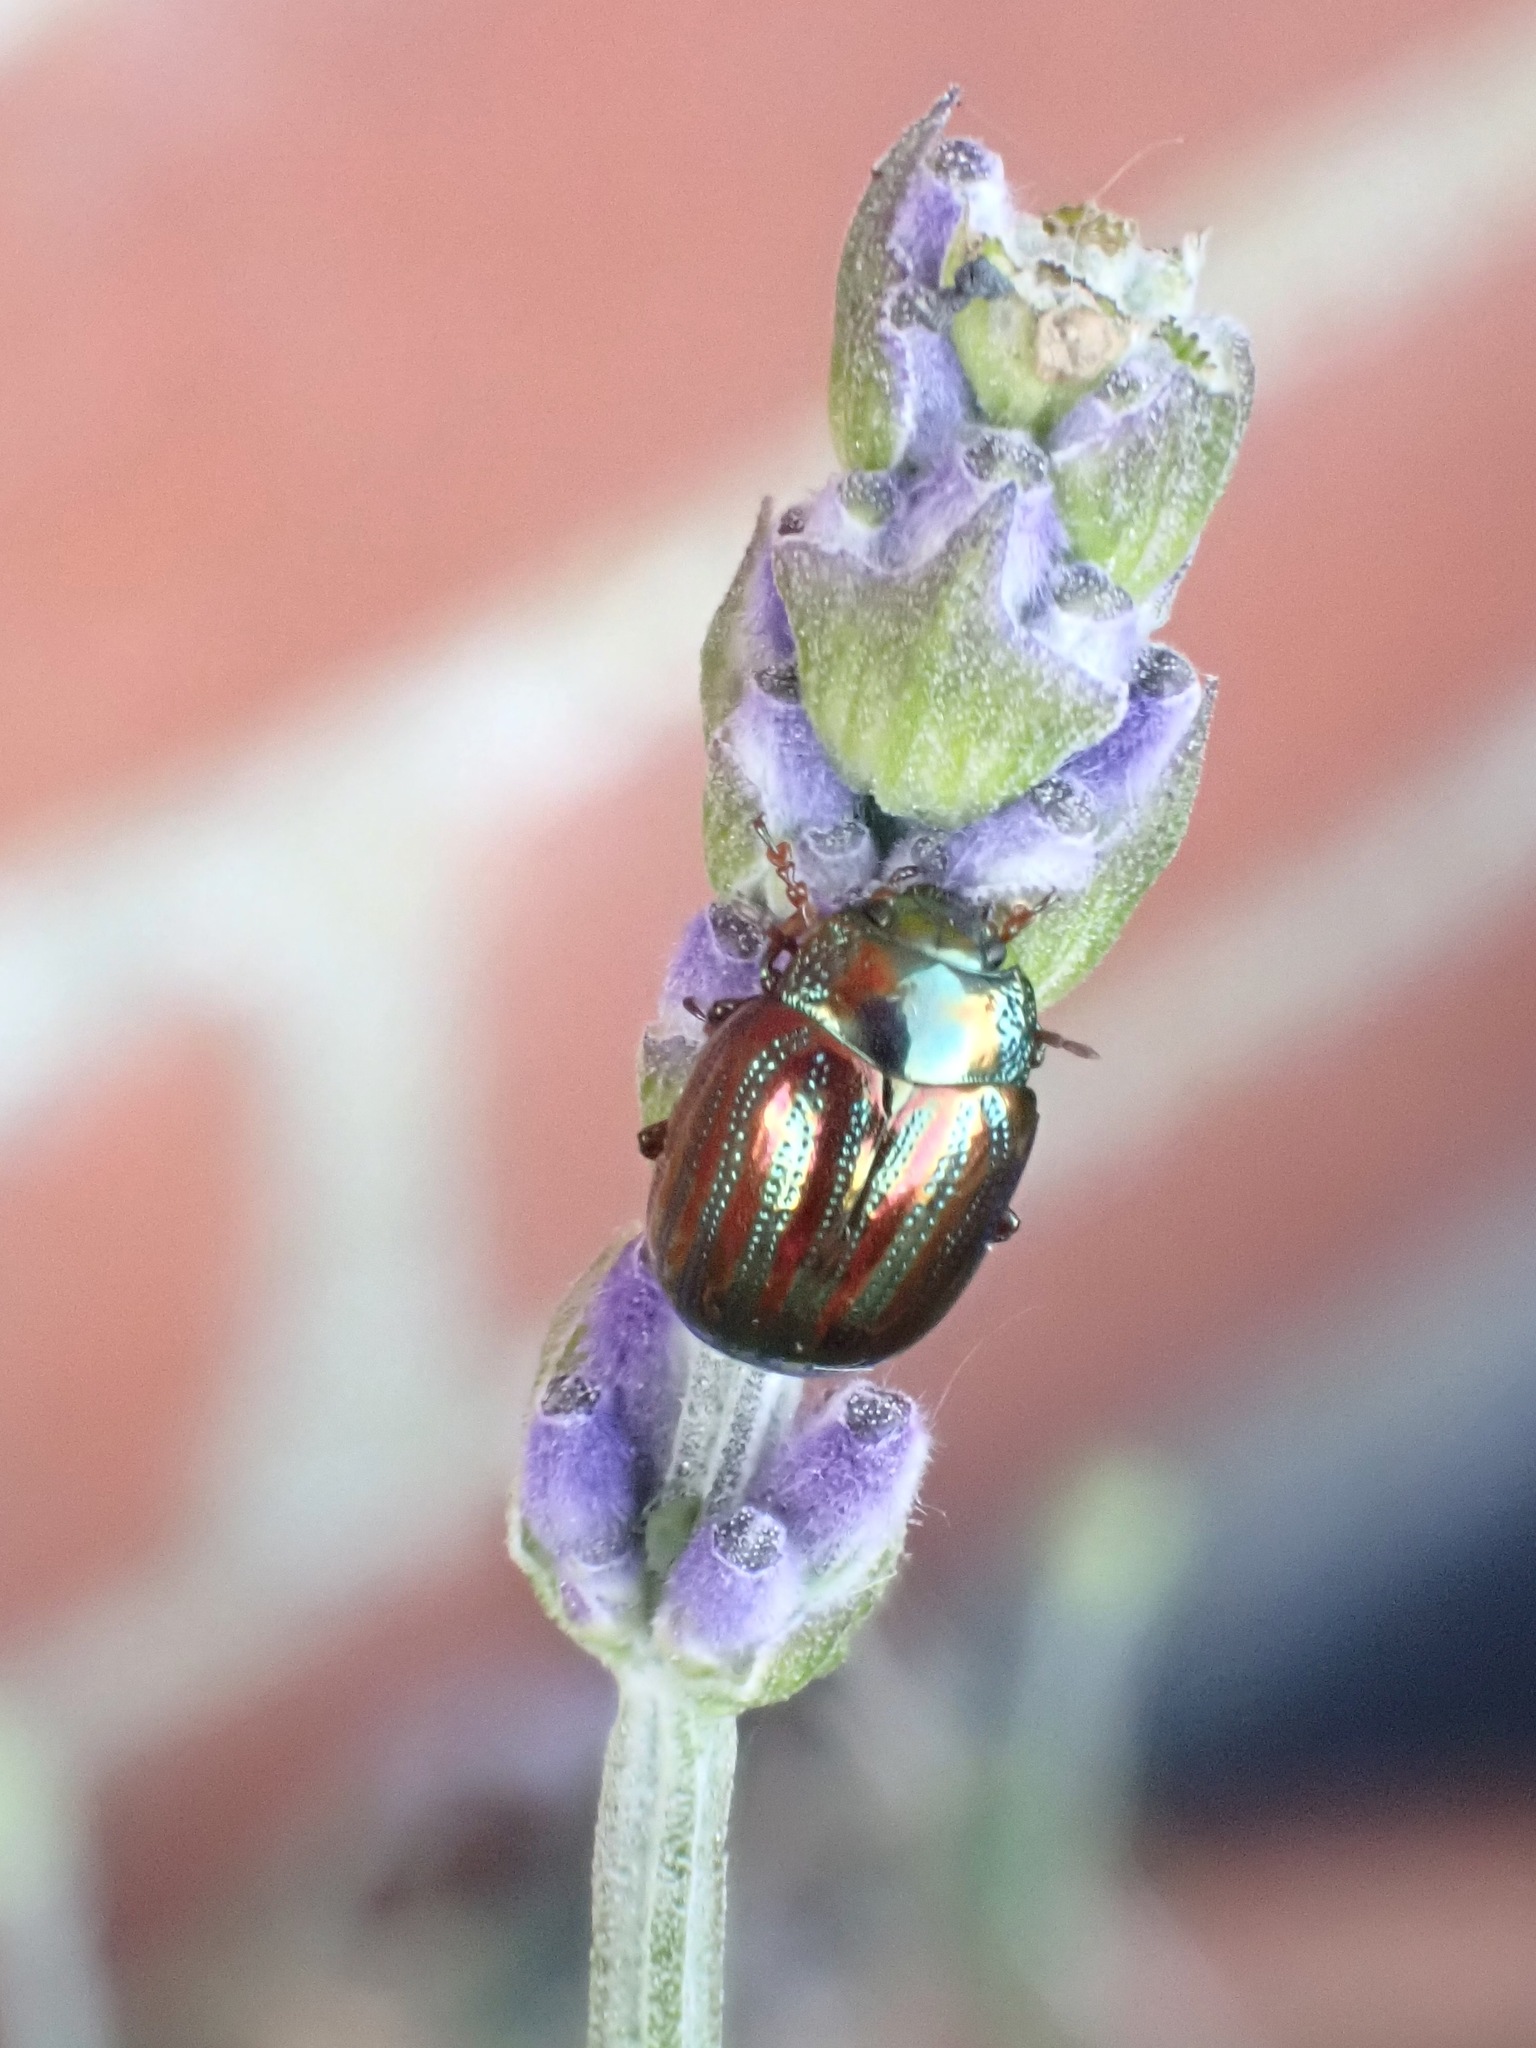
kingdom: Animalia
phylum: Arthropoda
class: Insecta
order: Coleoptera
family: Chrysomelidae
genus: Chrysolina
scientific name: Chrysolina americana
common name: Rosemary beetle
